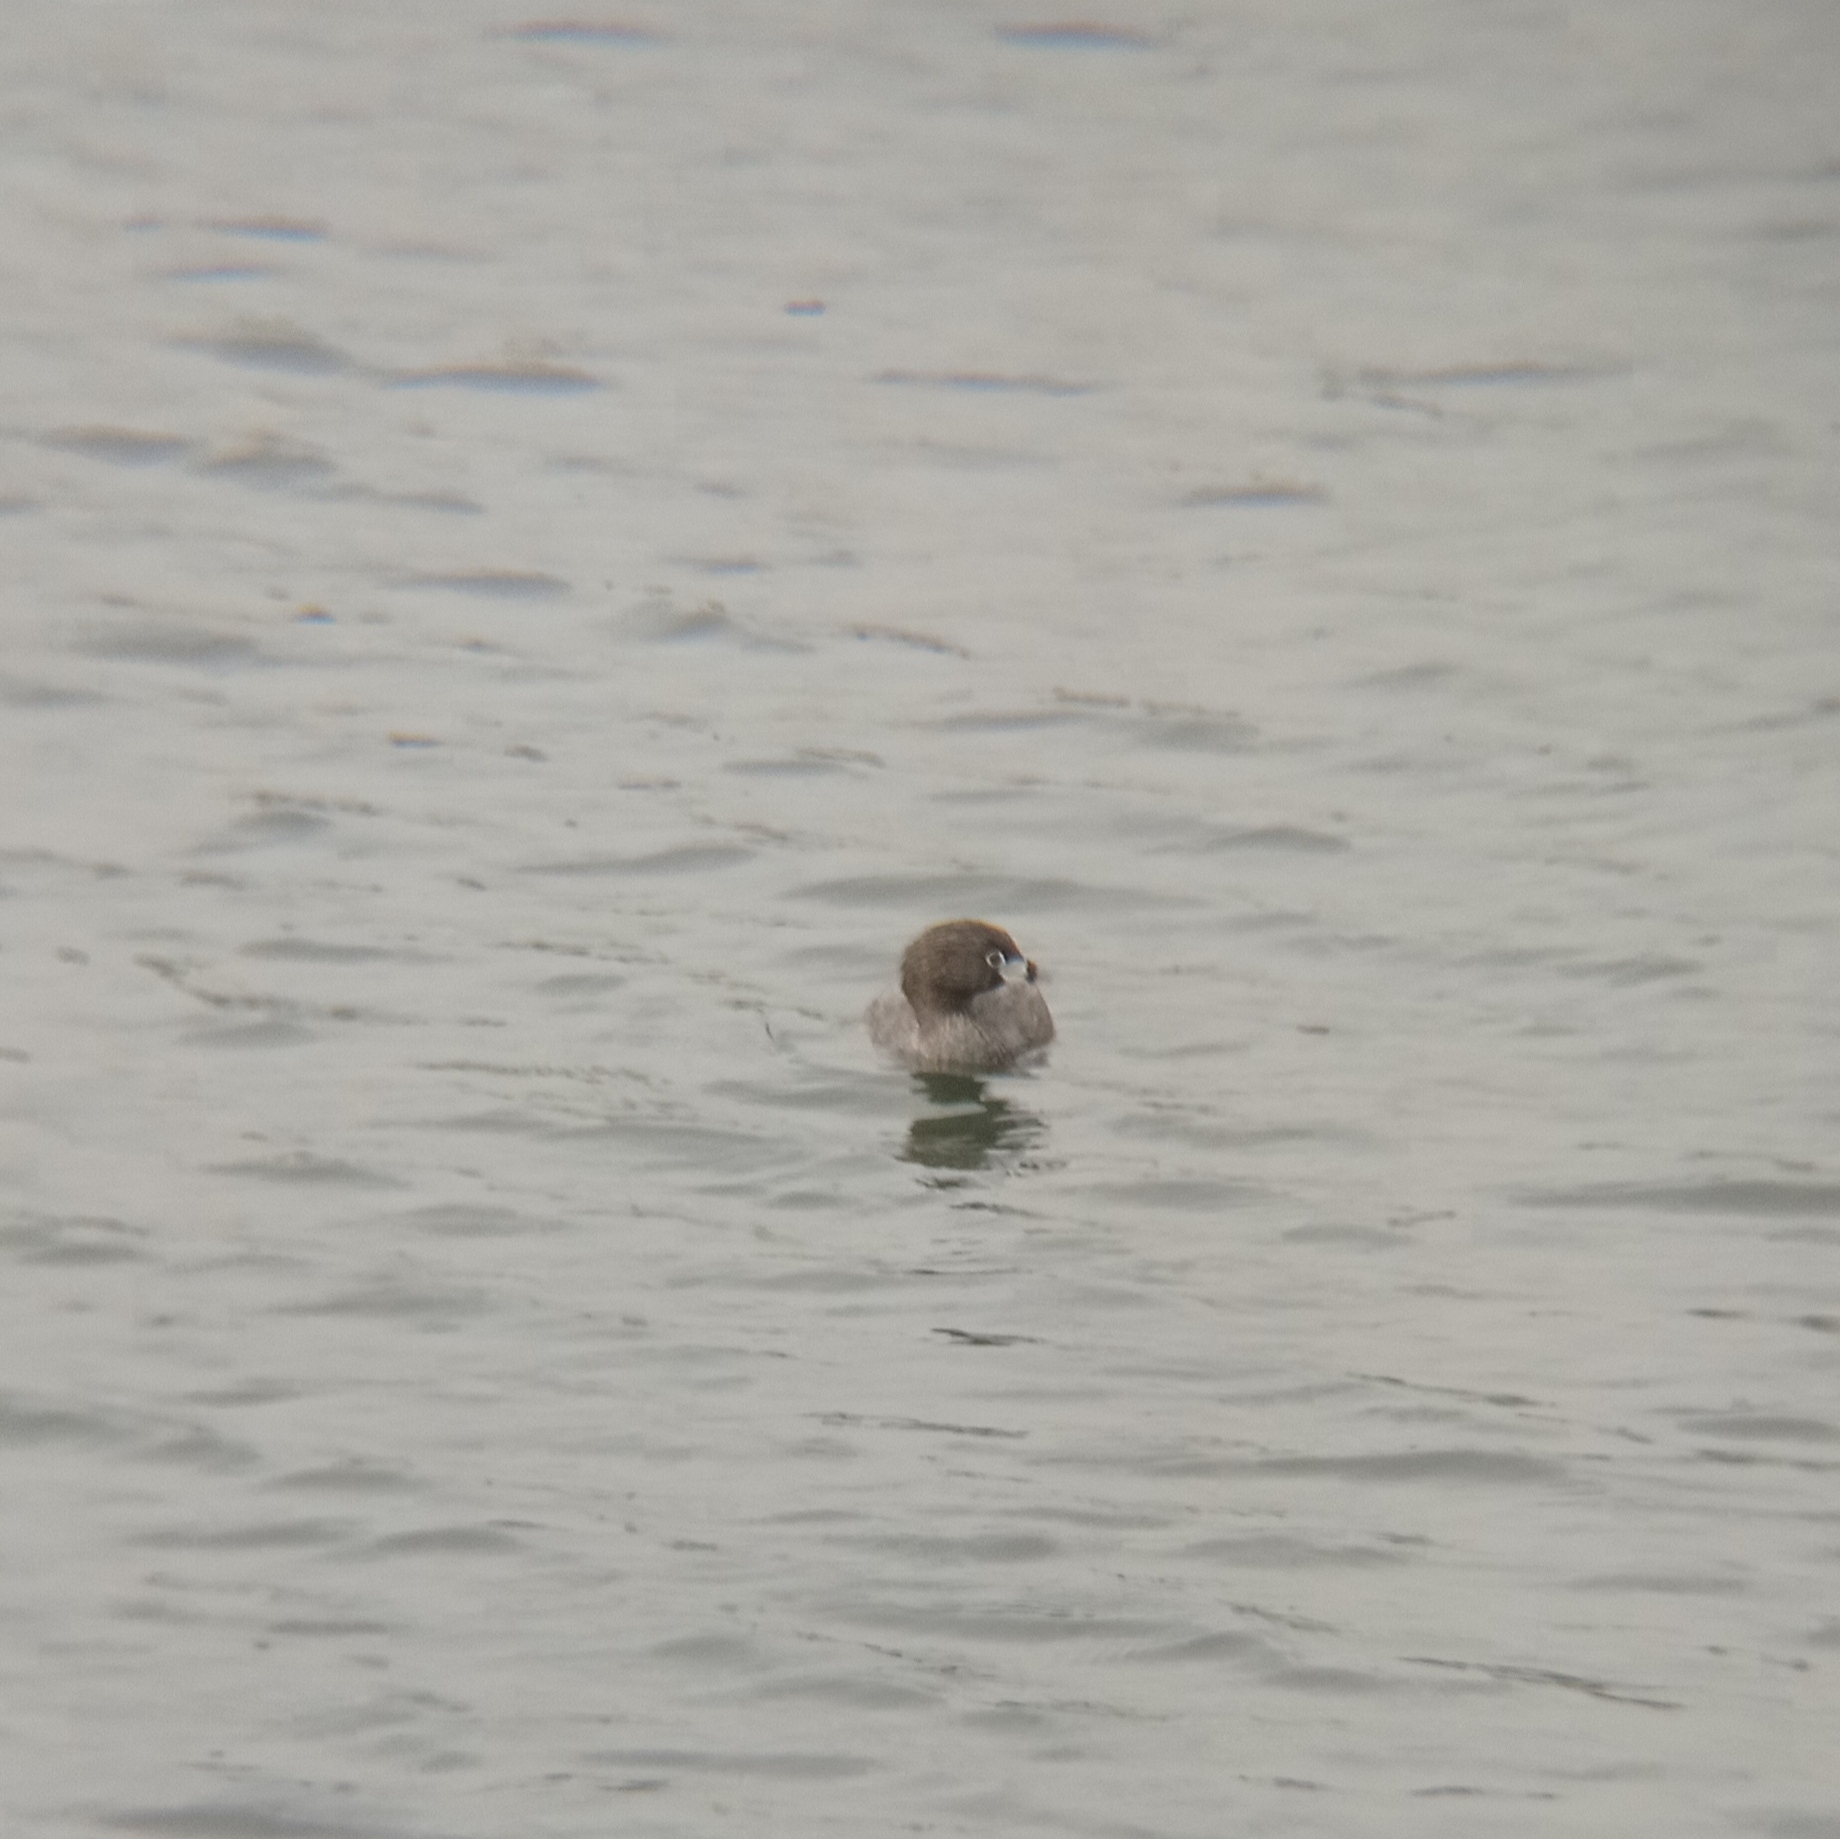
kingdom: Animalia
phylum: Chordata
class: Aves
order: Podicipediformes
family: Podicipedidae
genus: Podilymbus
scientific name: Podilymbus podiceps
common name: Pied-billed grebe
